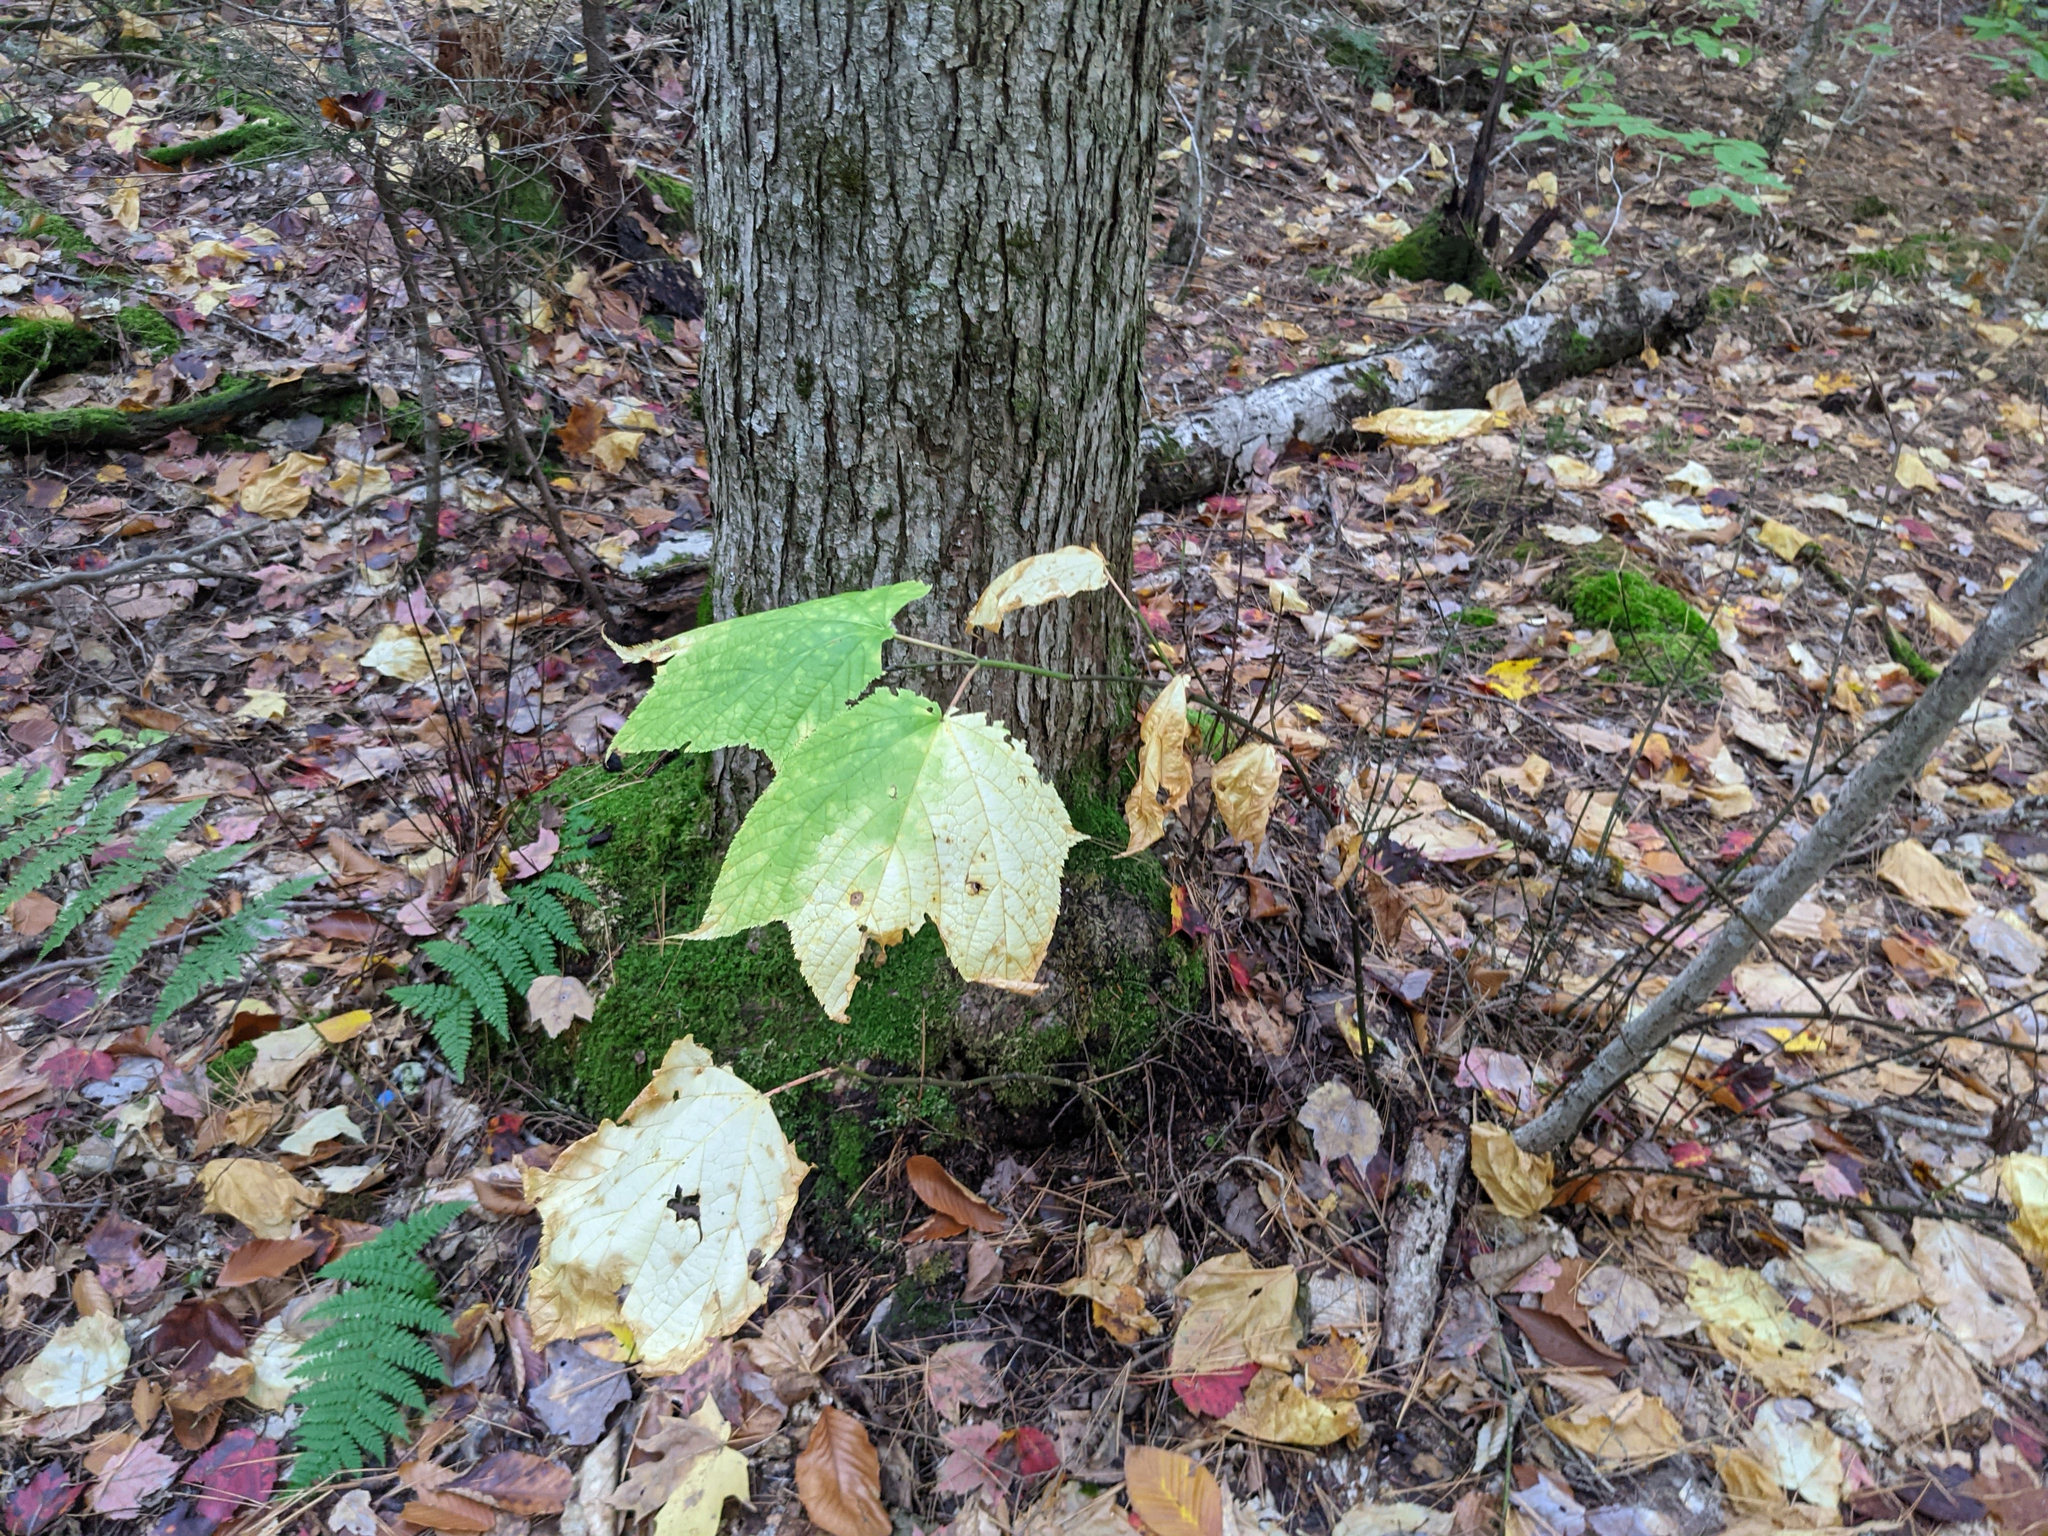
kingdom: Plantae
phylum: Tracheophyta
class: Magnoliopsida
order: Sapindales
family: Sapindaceae
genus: Acer
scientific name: Acer pensylvanicum
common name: Moosewood
